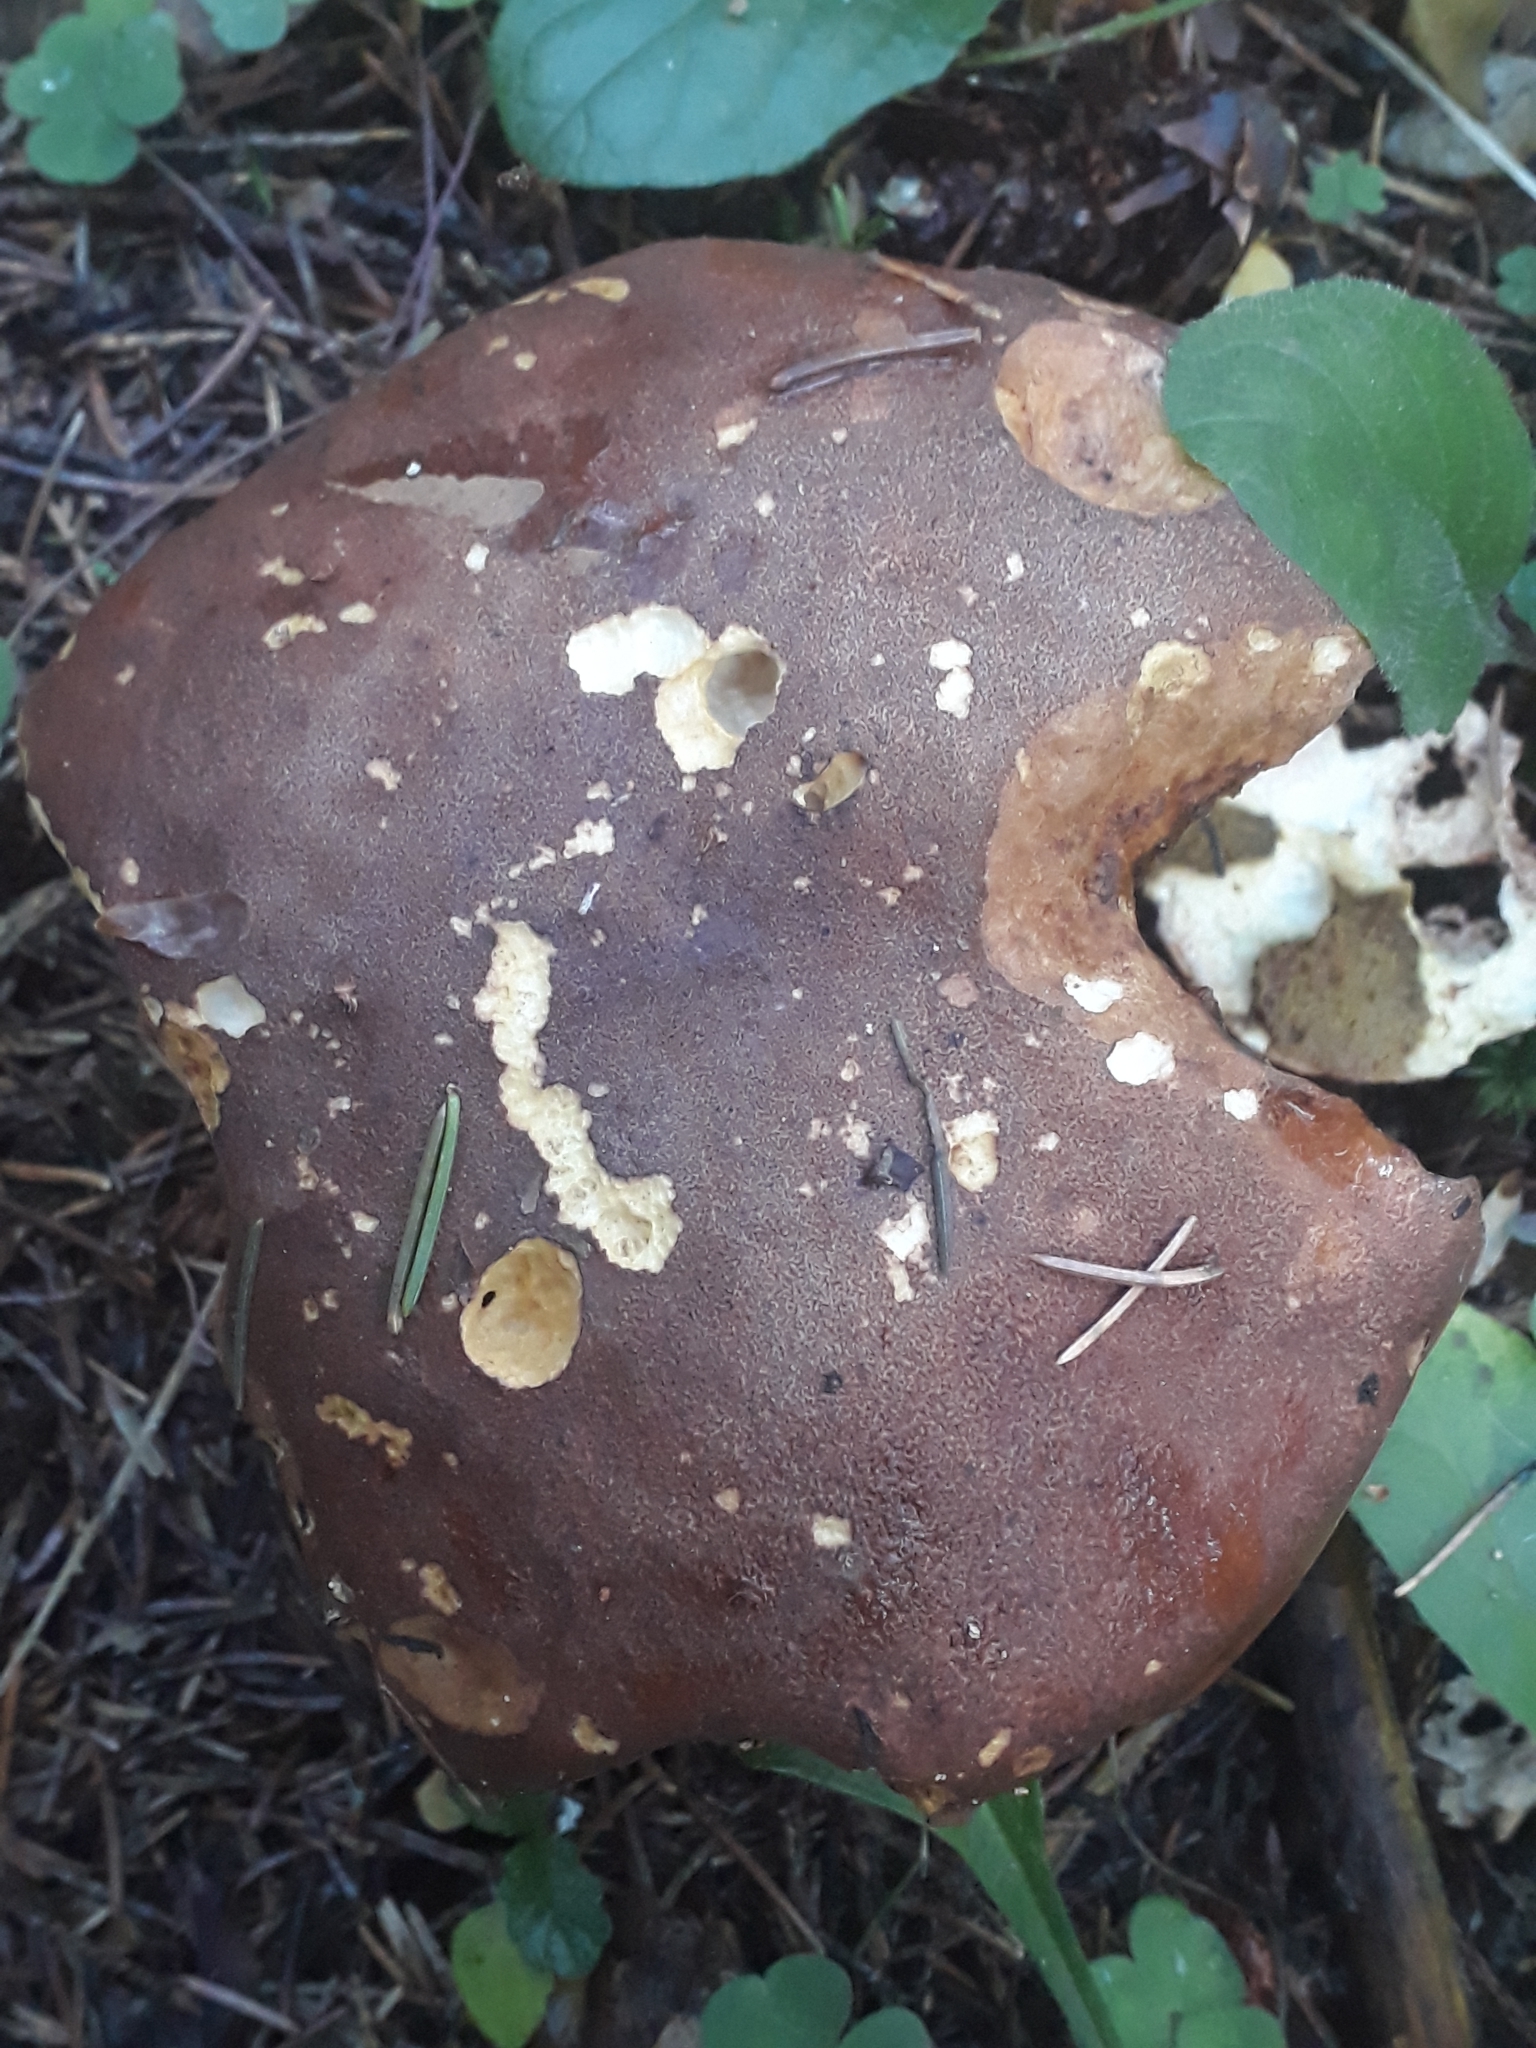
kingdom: Fungi
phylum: Basidiomycota
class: Agaricomycetes
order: Boletales
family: Boletaceae
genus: Imleria
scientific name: Imleria badia
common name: Bay bolete
